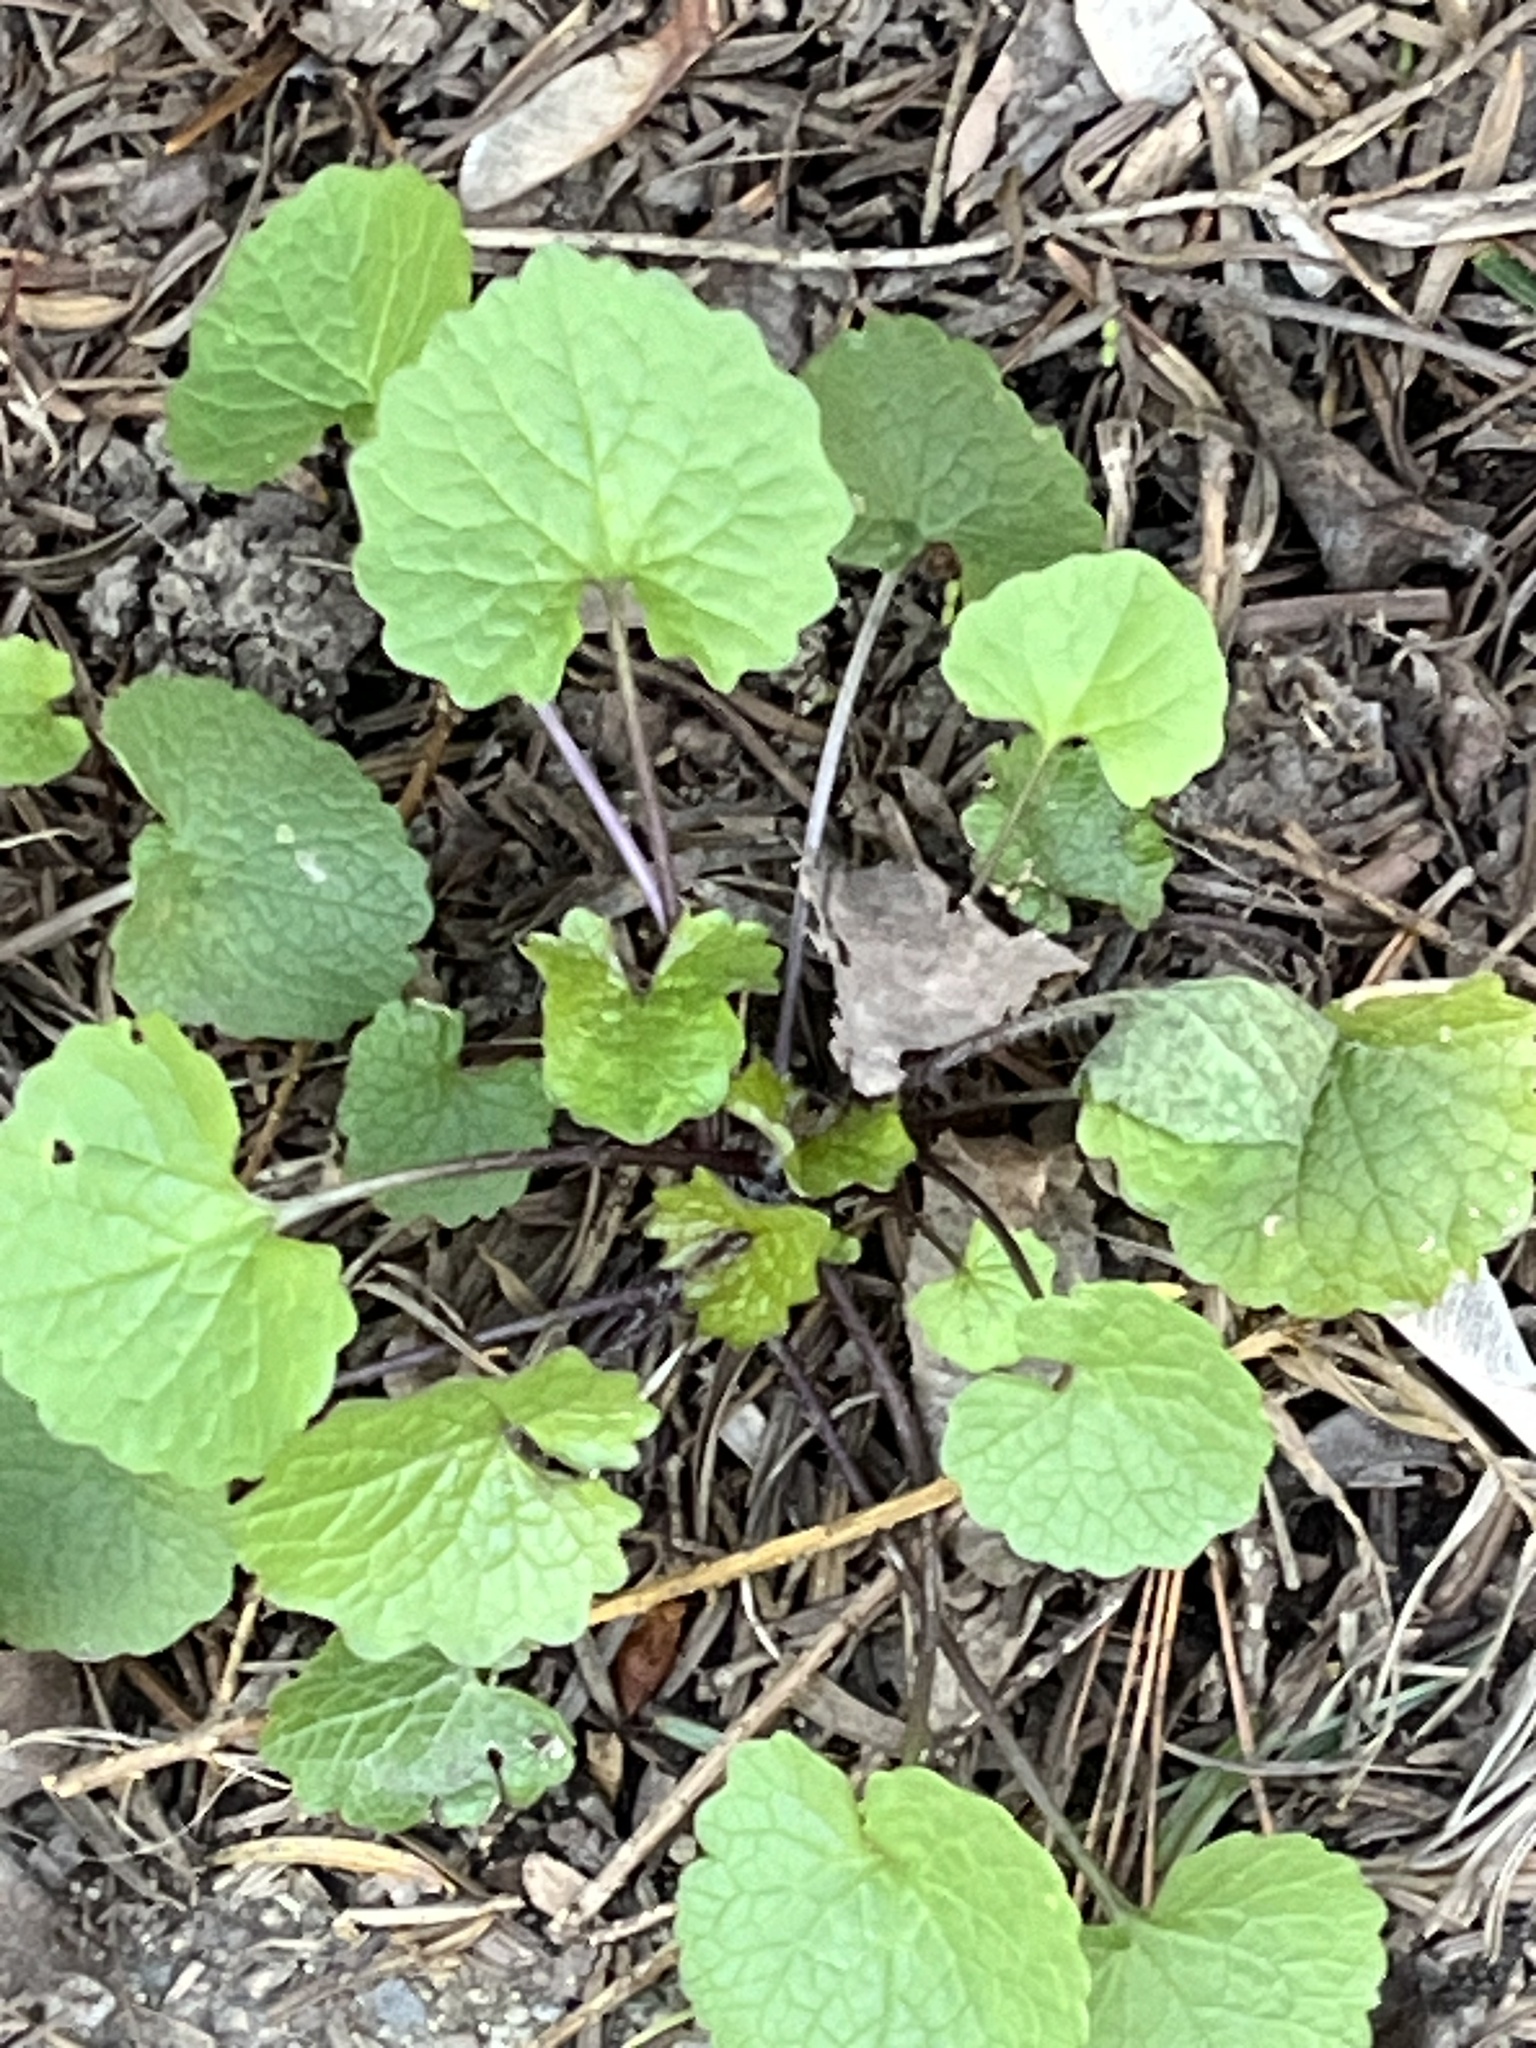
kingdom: Plantae
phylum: Tracheophyta
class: Magnoliopsida
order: Brassicales
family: Brassicaceae
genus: Alliaria
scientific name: Alliaria petiolata
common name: Garlic mustard
